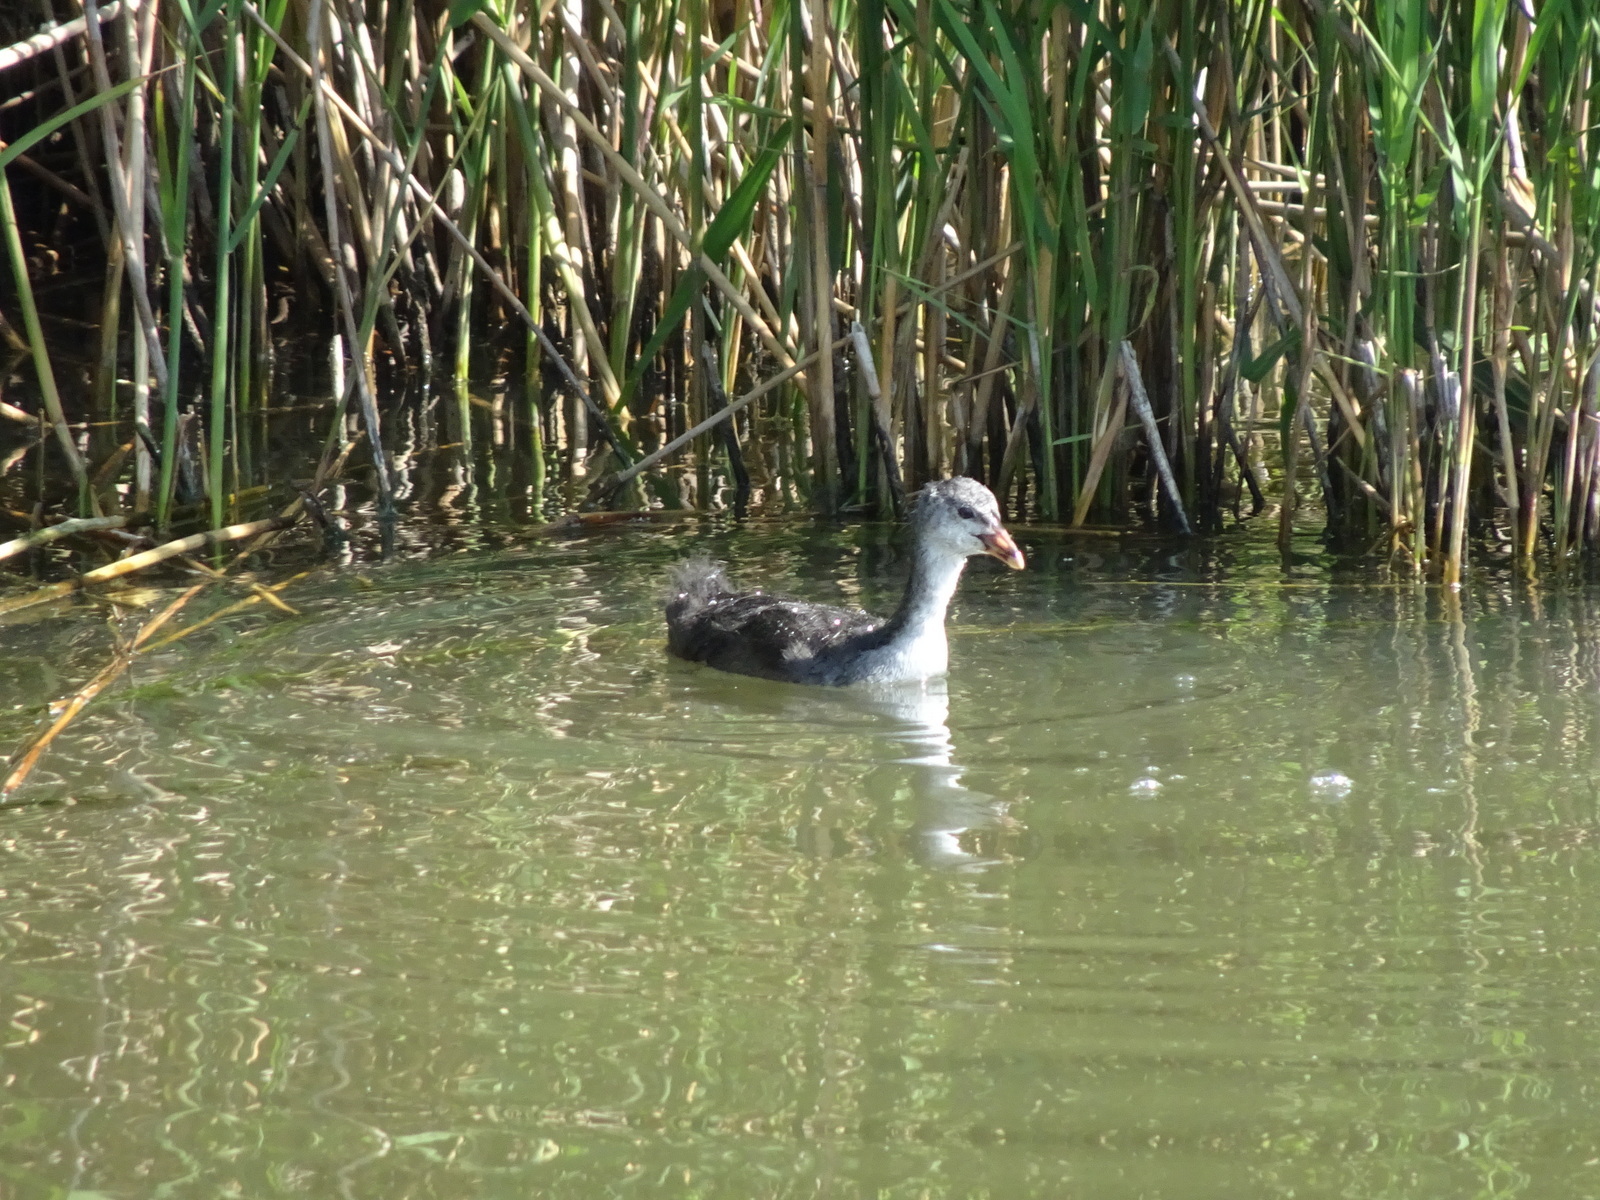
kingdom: Animalia
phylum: Chordata
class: Aves
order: Gruiformes
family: Rallidae
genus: Fulica
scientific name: Fulica atra
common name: Eurasian coot
